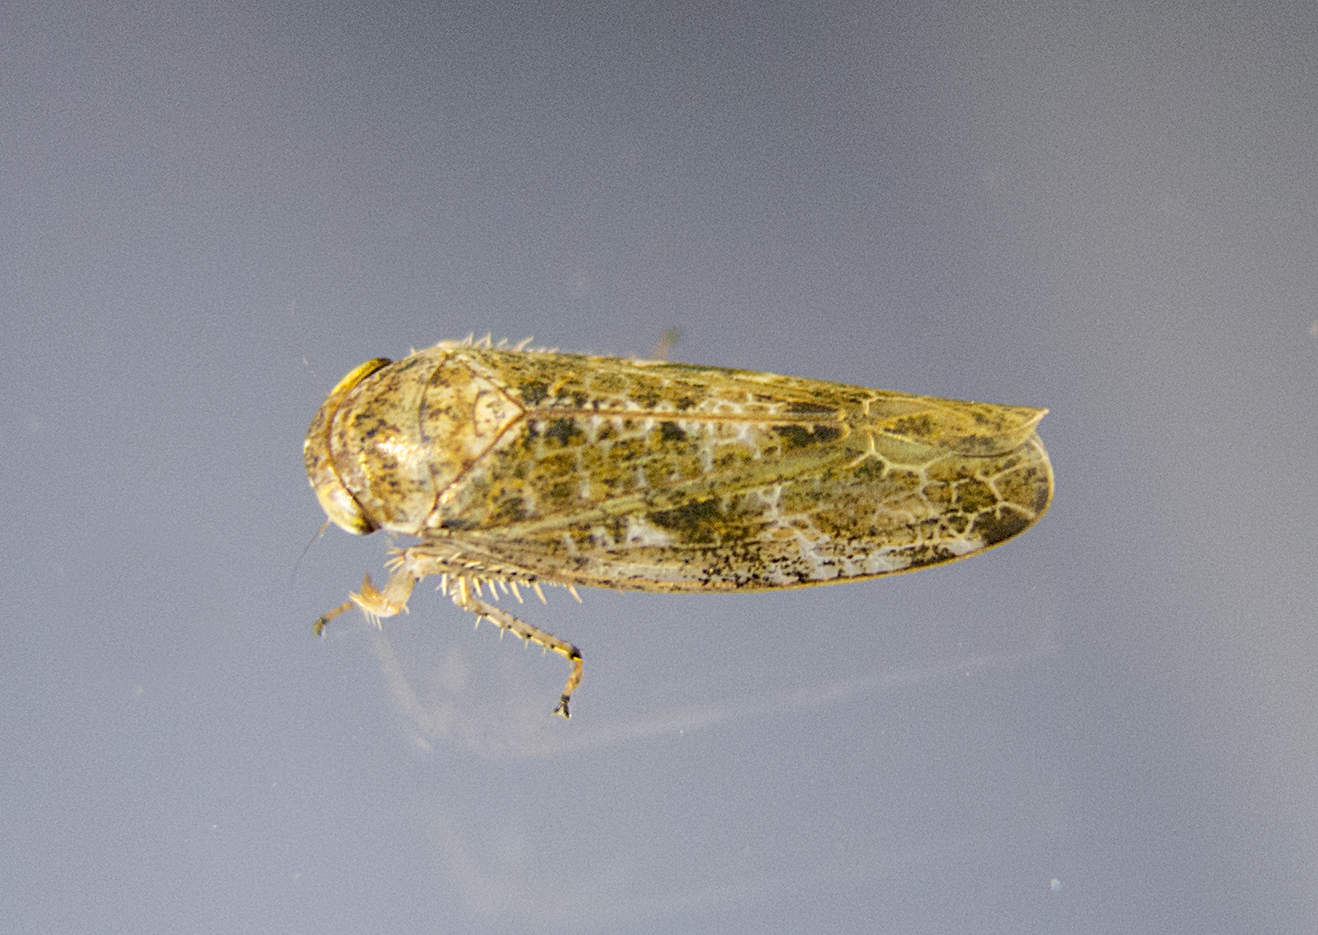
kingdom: Animalia
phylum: Arthropoda
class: Insecta
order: Hemiptera
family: Cicadellidae
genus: Allygidius
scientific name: Allygidius atomarius
